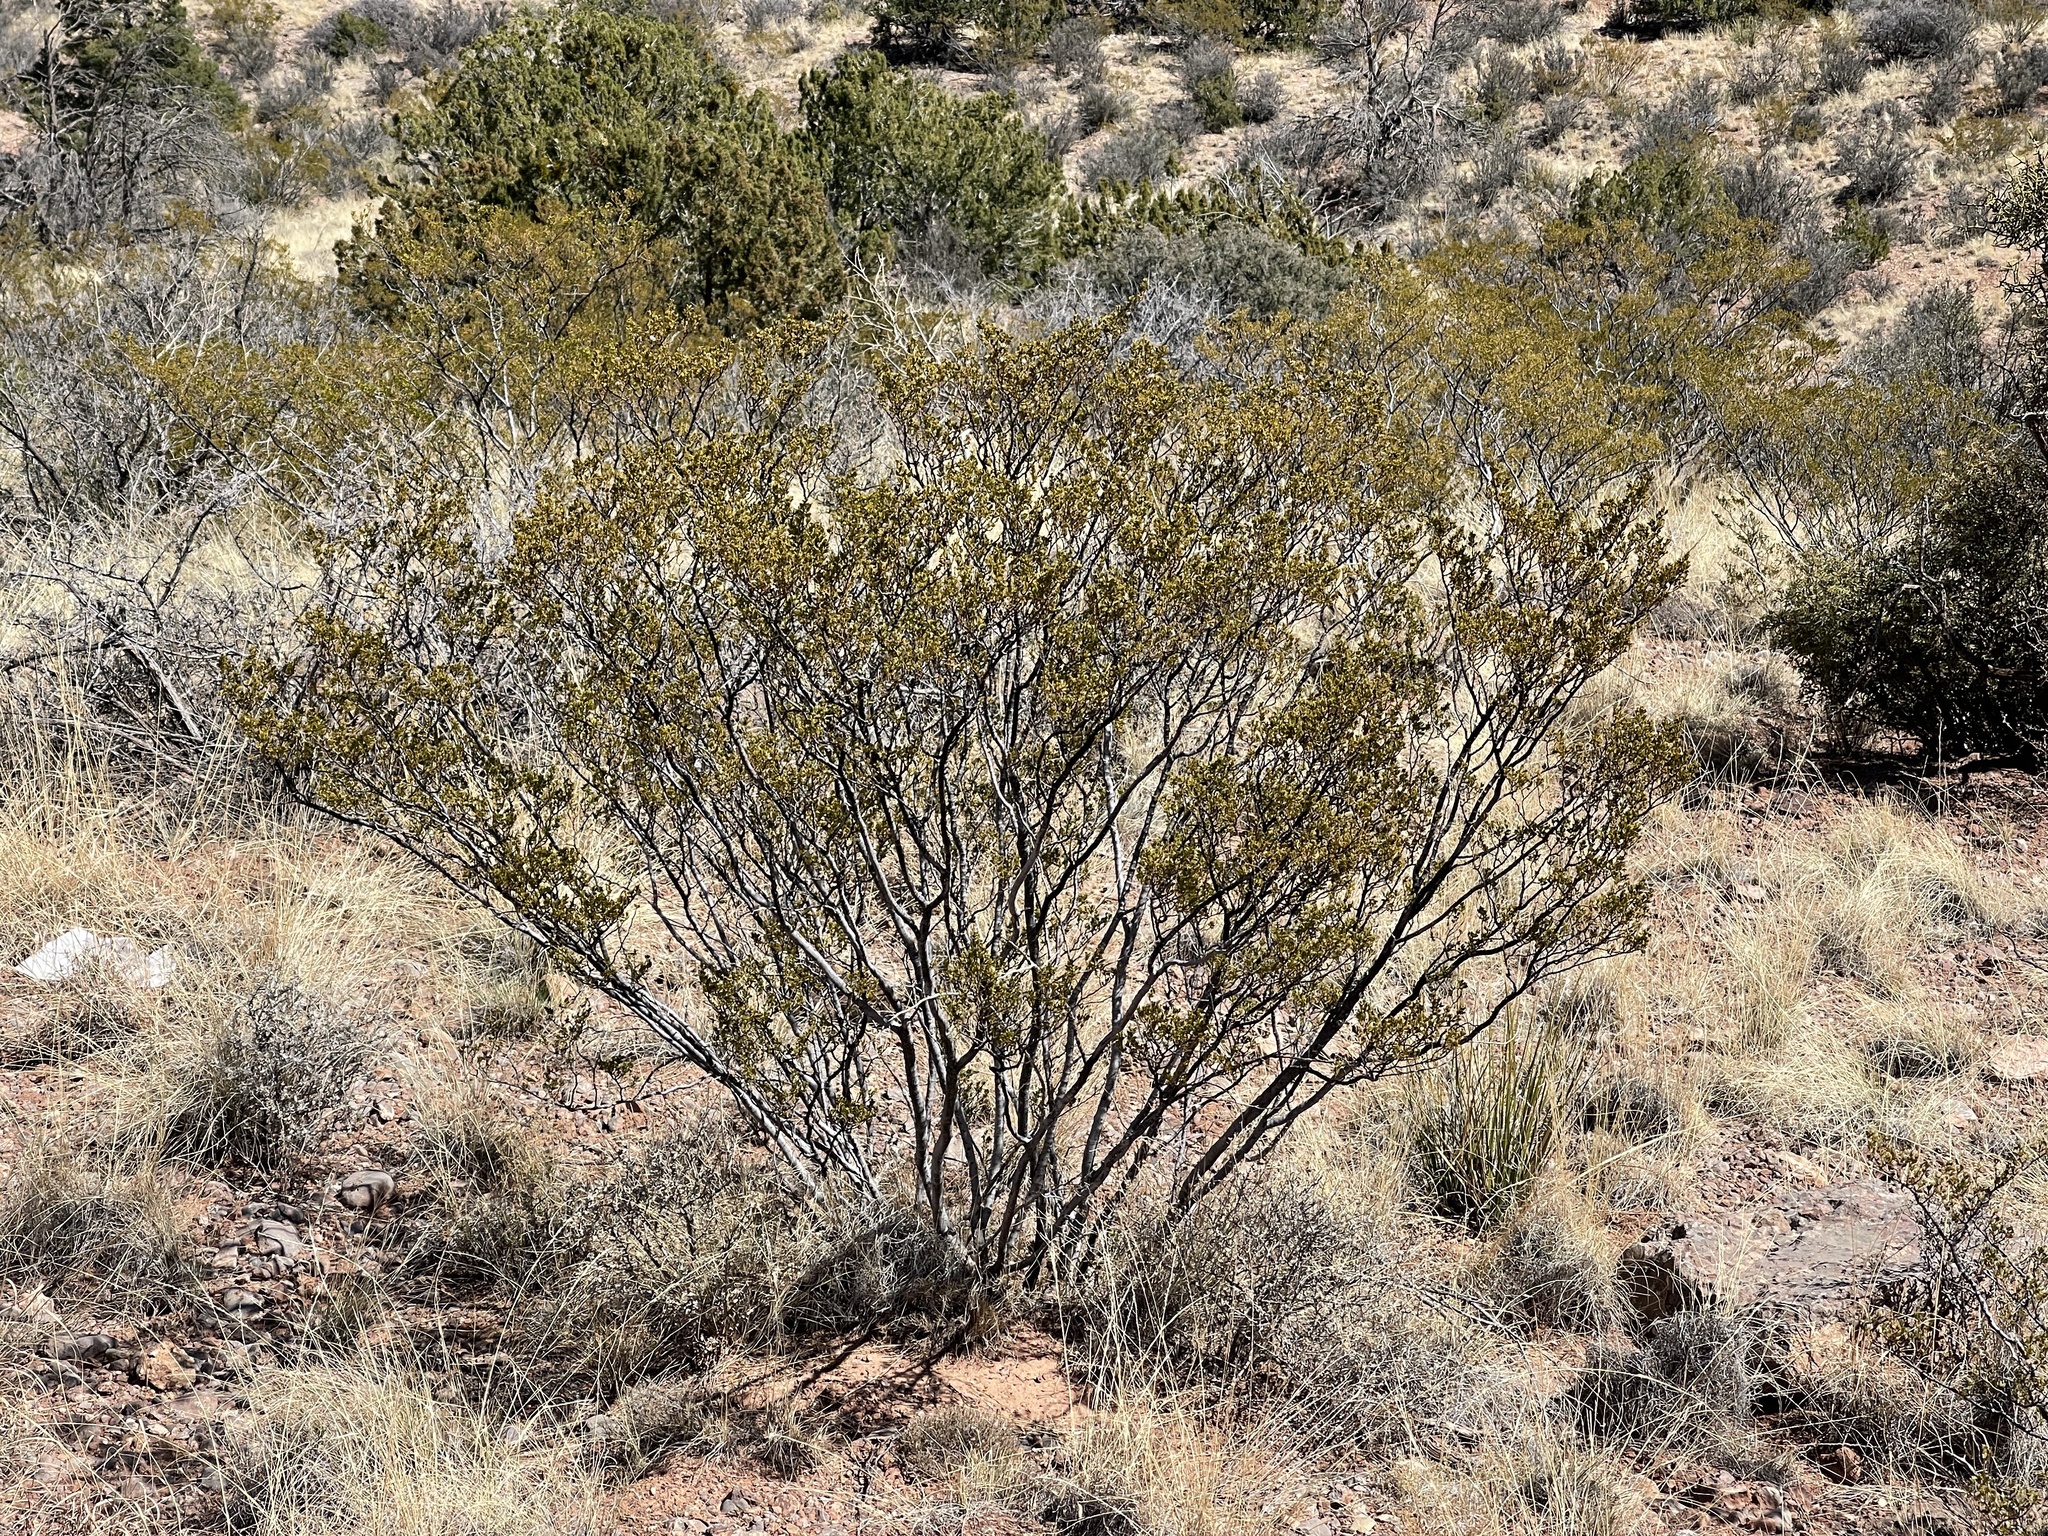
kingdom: Plantae
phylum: Tracheophyta
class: Magnoliopsida
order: Zygophyllales
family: Zygophyllaceae
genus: Larrea
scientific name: Larrea tridentata
